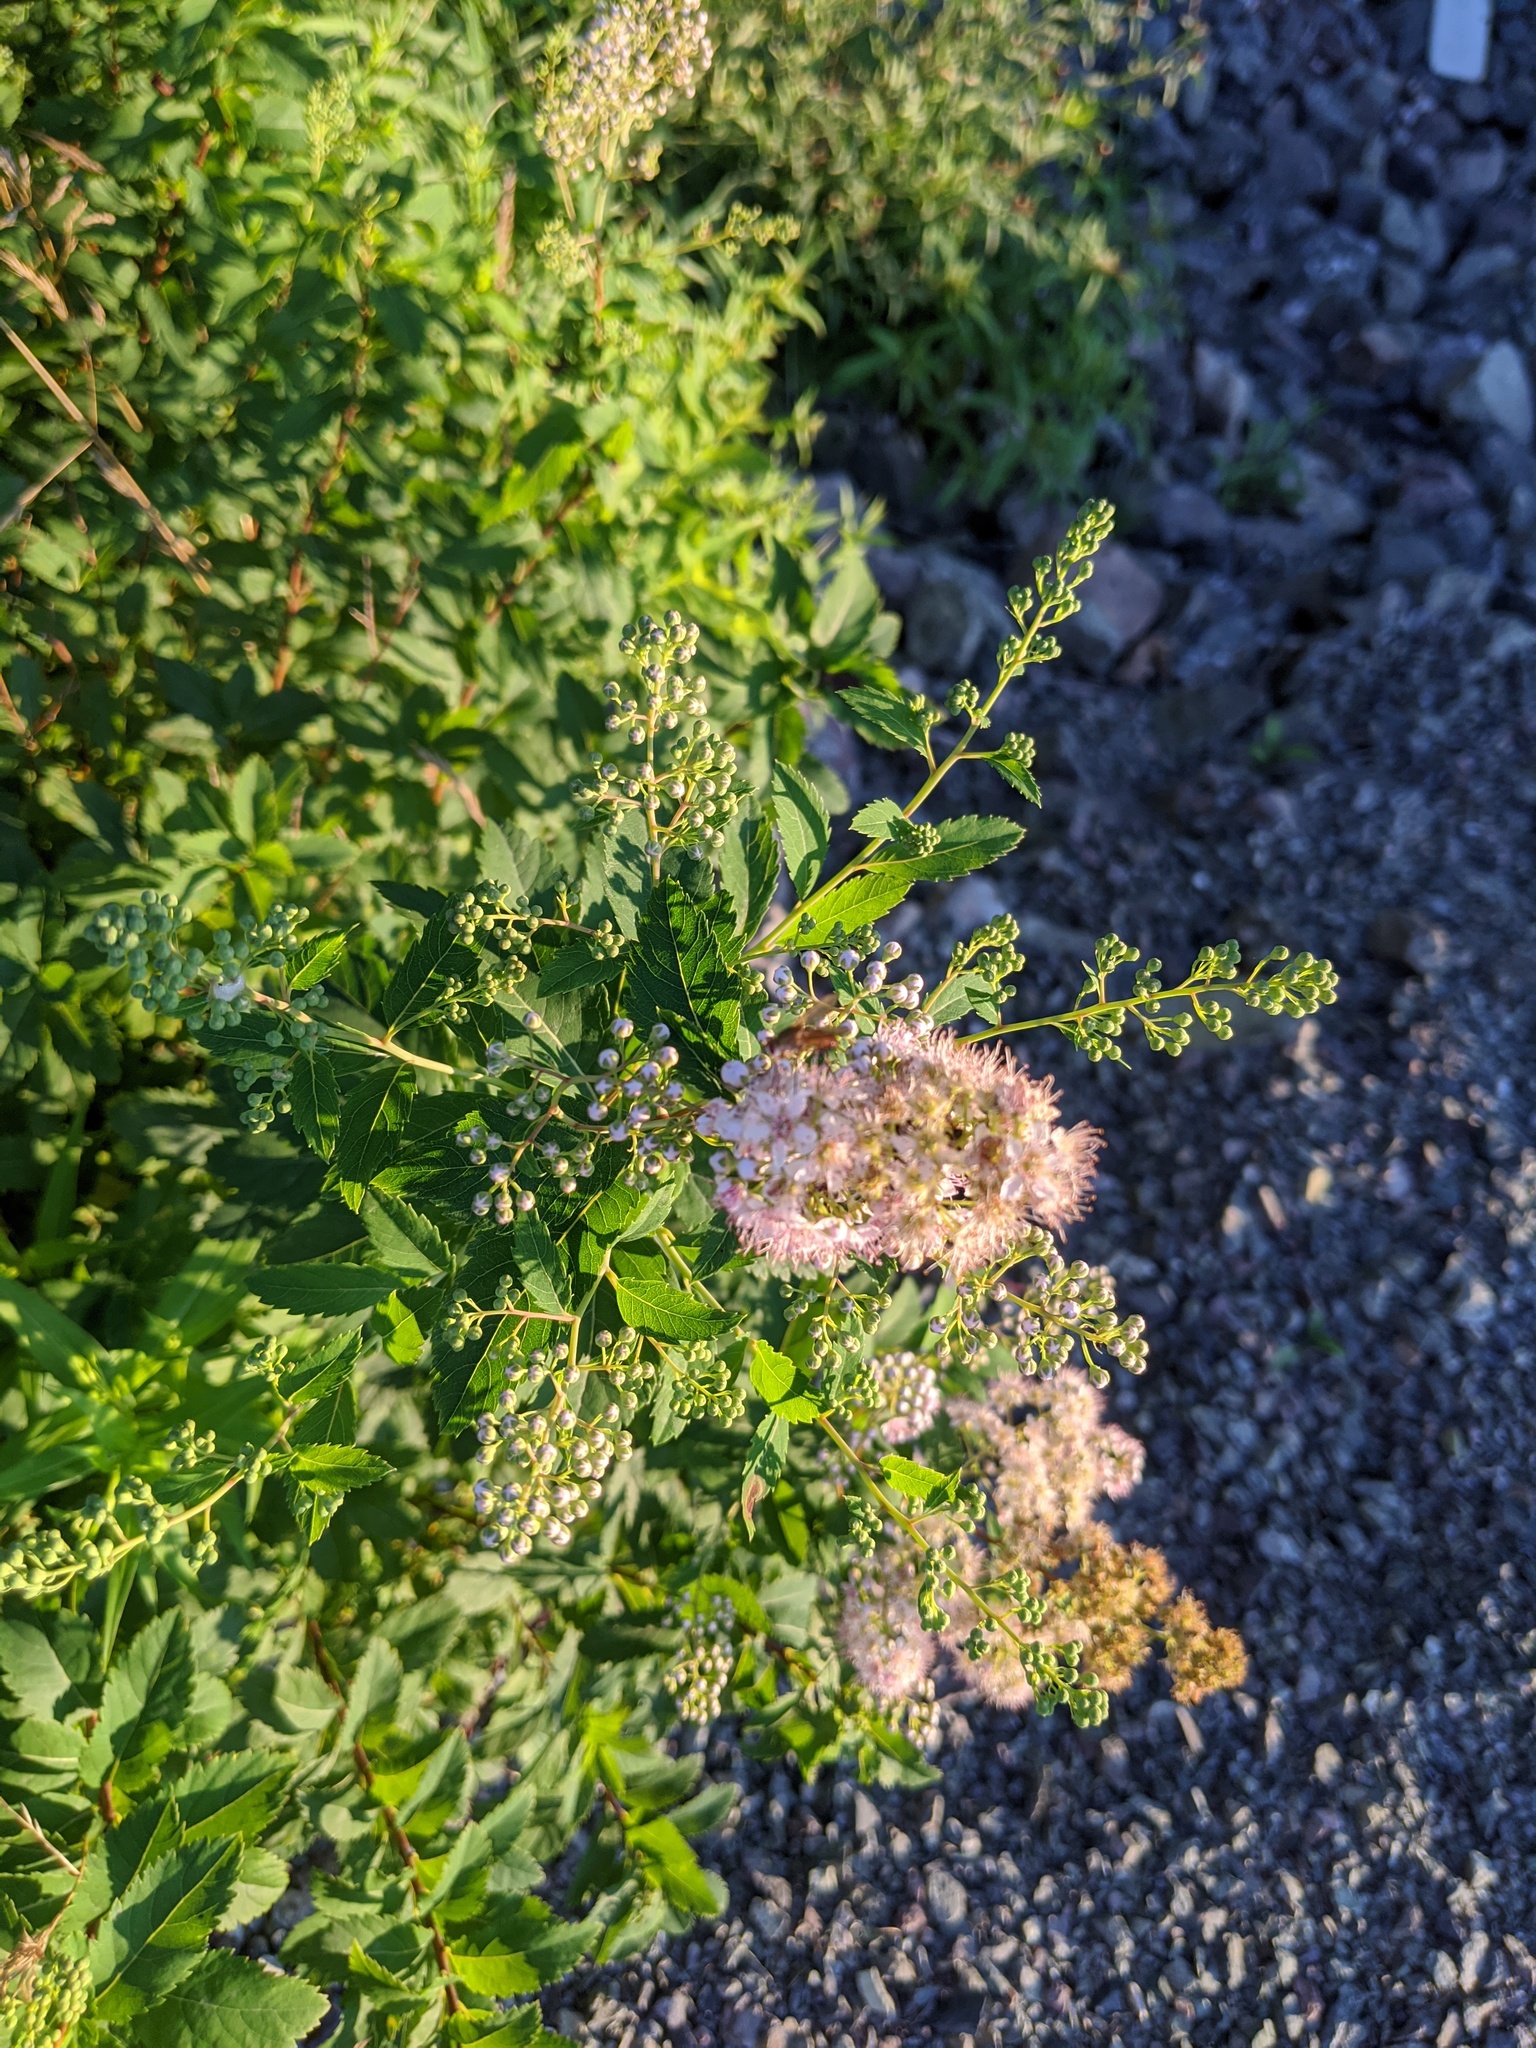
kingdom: Plantae
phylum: Tracheophyta
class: Magnoliopsida
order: Rosales
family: Rosaceae
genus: Spiraea
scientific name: Spiraea alba
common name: Pale bridewort
